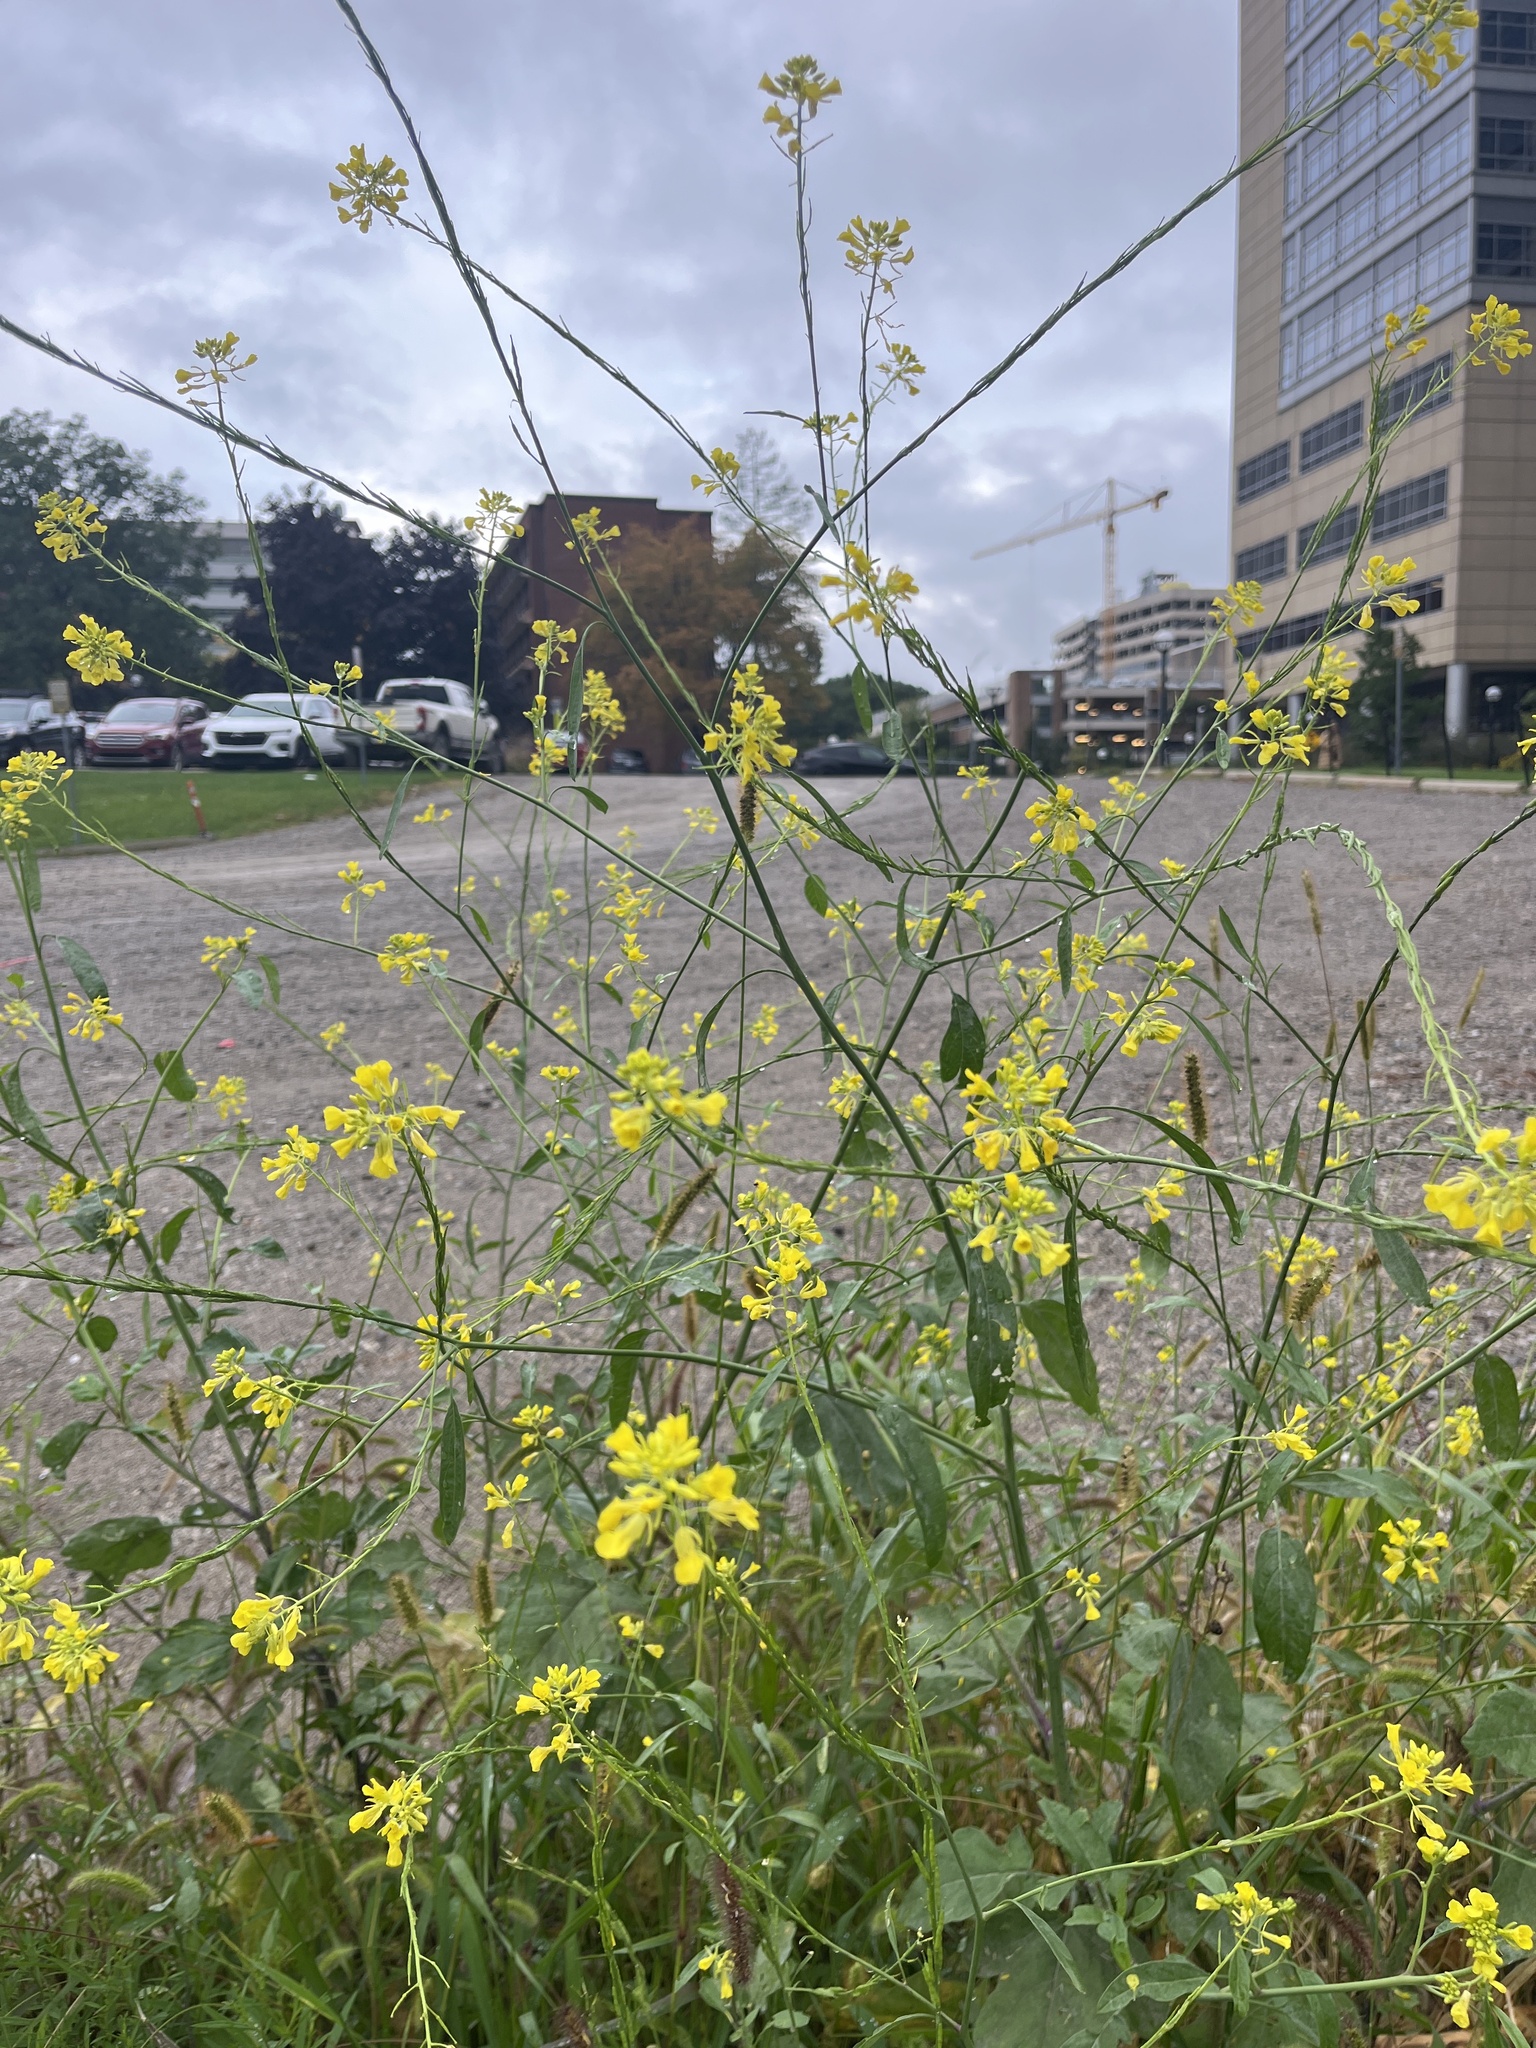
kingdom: Plantae
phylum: Tracheophyta
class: Magnoliopsida
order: Brassicales
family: Brassicaceae
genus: Brassica
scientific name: Brassica nigra
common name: Black mustard
